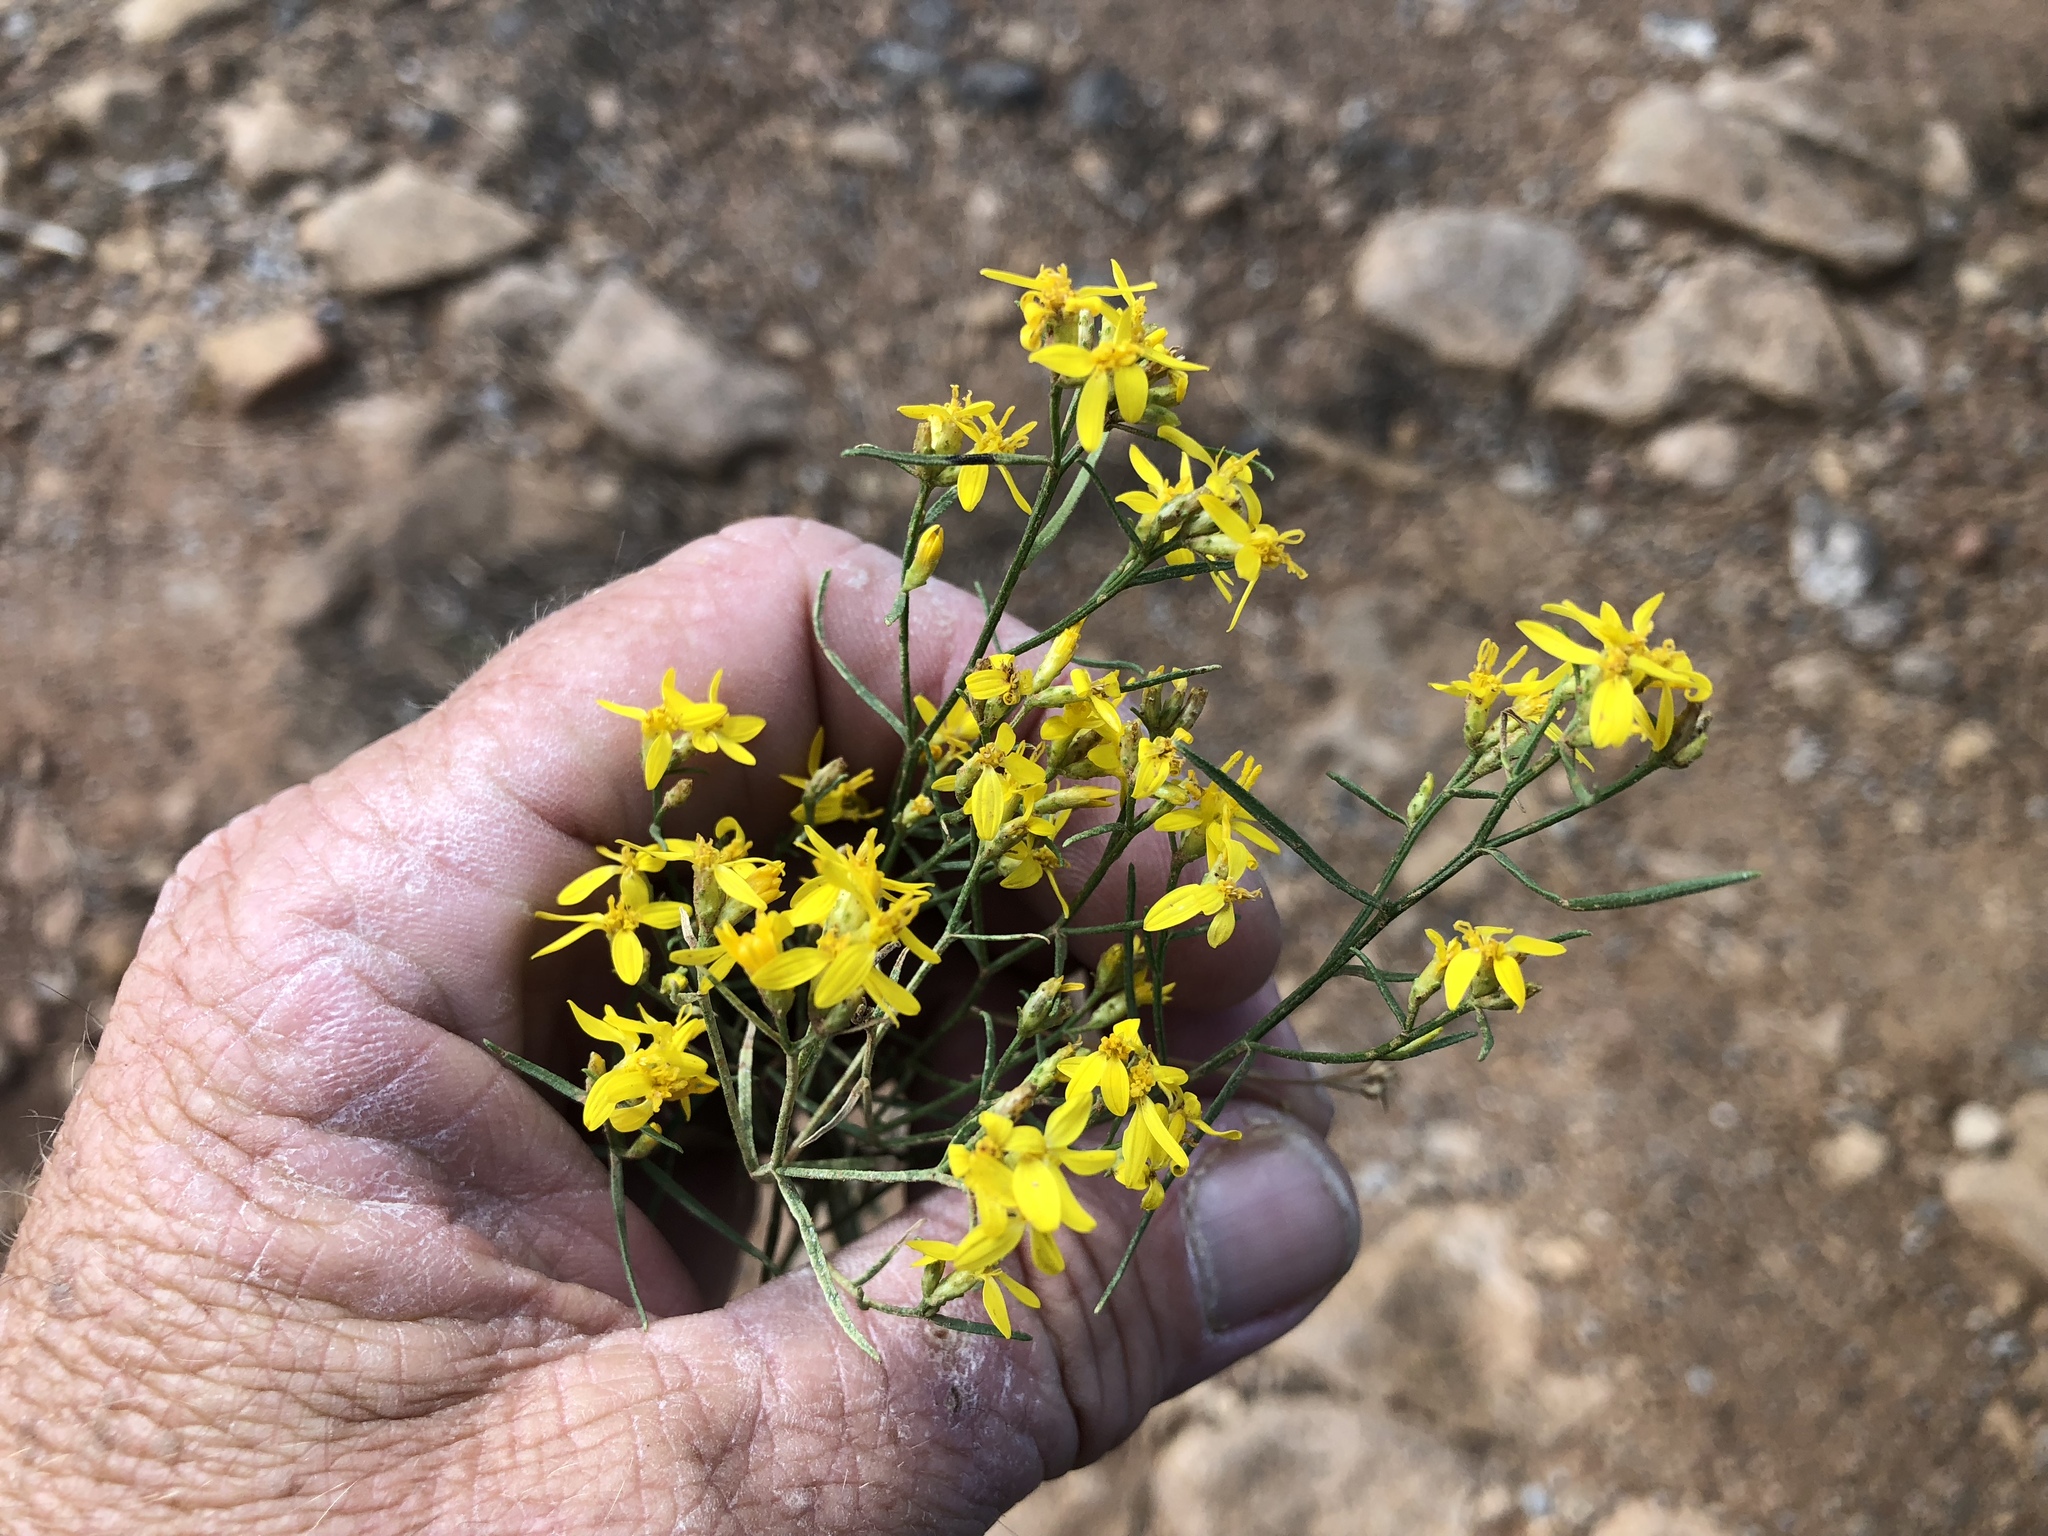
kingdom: Plantae
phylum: Tracheophyta
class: Magnoliopsida
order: Asterales
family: Asteraceae
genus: Gutierrezia
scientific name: Gutierrezia sarothrae
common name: Broom snakeweed
